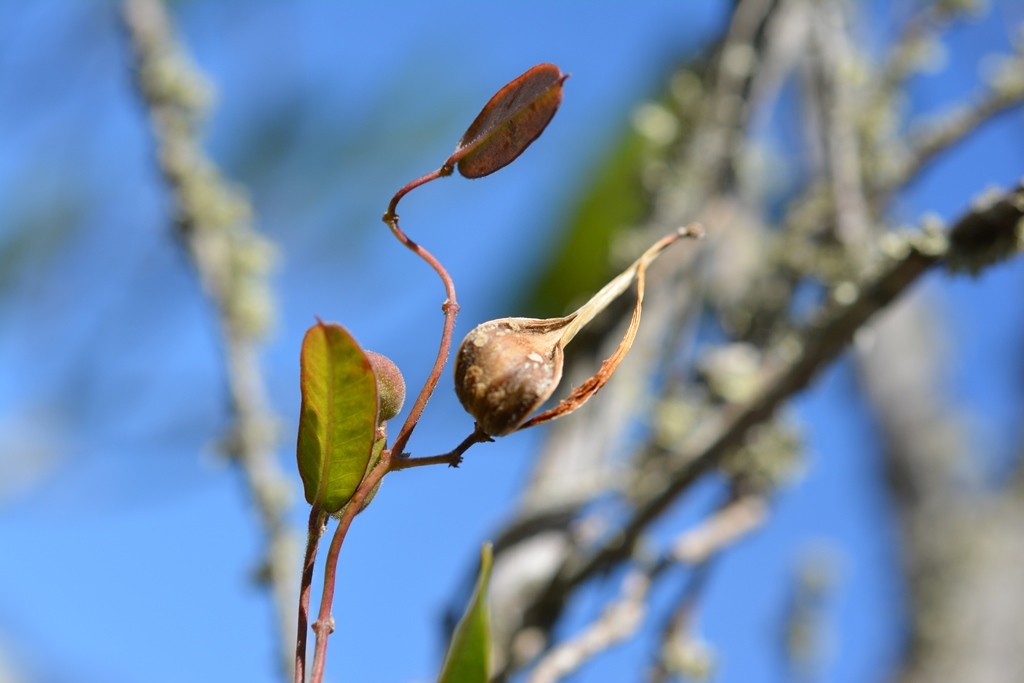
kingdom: Plantae
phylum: Tracheophyta
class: Magnoliopsida
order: Gentianales
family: Apocynaceae
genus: Metastelma
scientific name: Metastelma californicum
